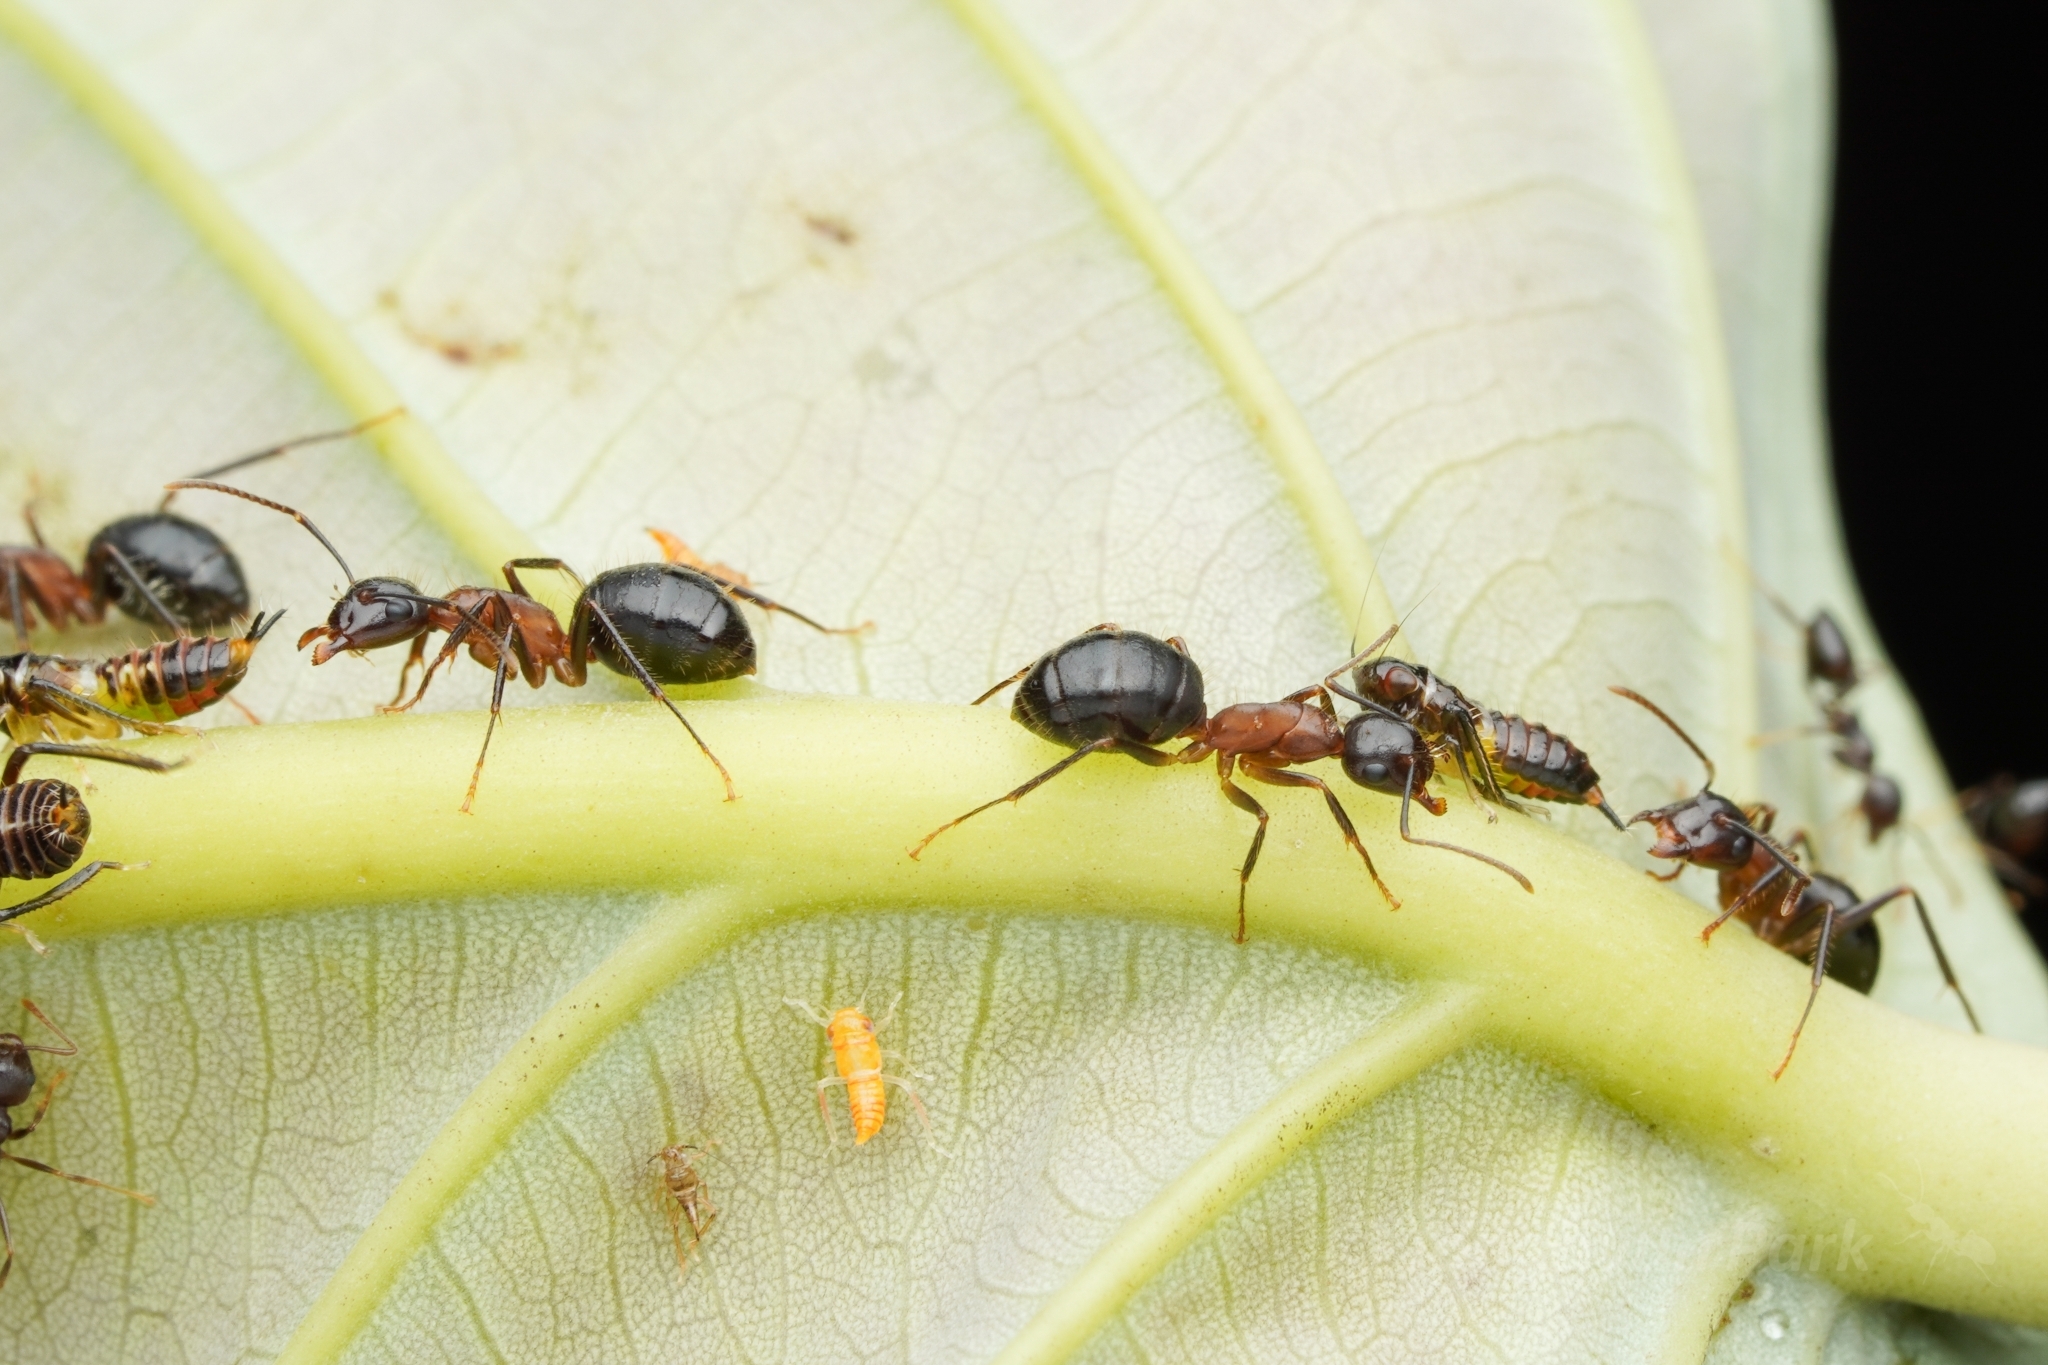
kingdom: Animalia
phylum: Arthropoda
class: Insecta
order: Hymenoptera
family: Formicidae
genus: Camponotus
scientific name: Camponotus rufifemur
